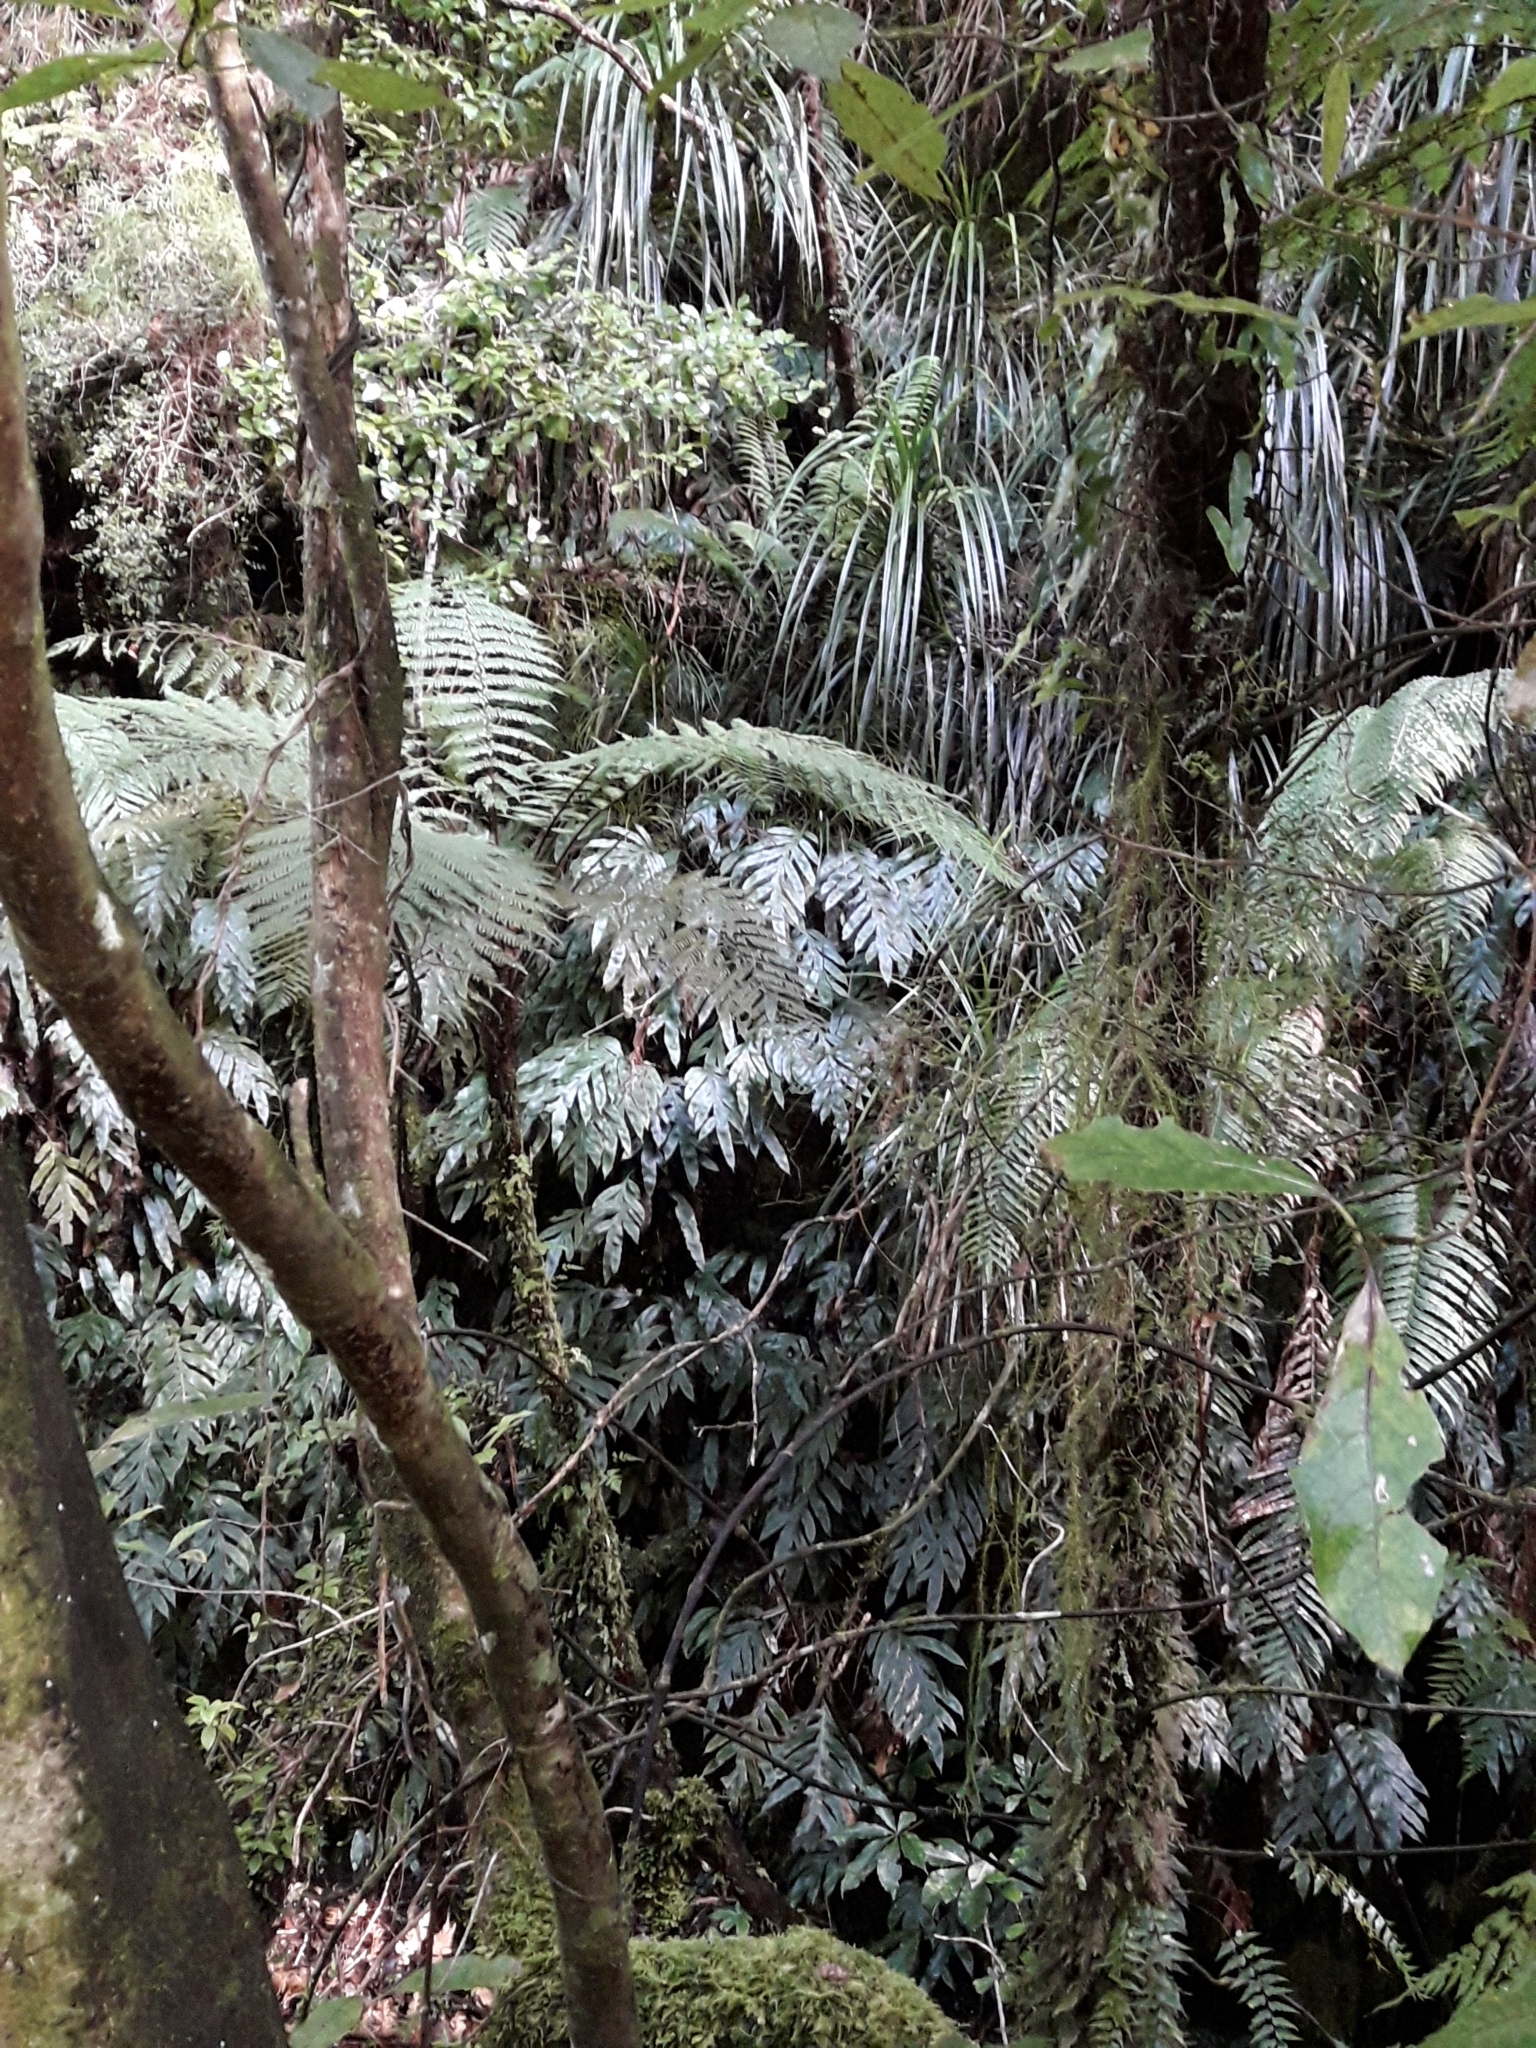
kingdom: Plantae
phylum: Tracheophyta
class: Polypodiopsida
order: Polypodiales
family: Blechnaceae
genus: Austroblechnum
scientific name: Austroblechnum colensoi
